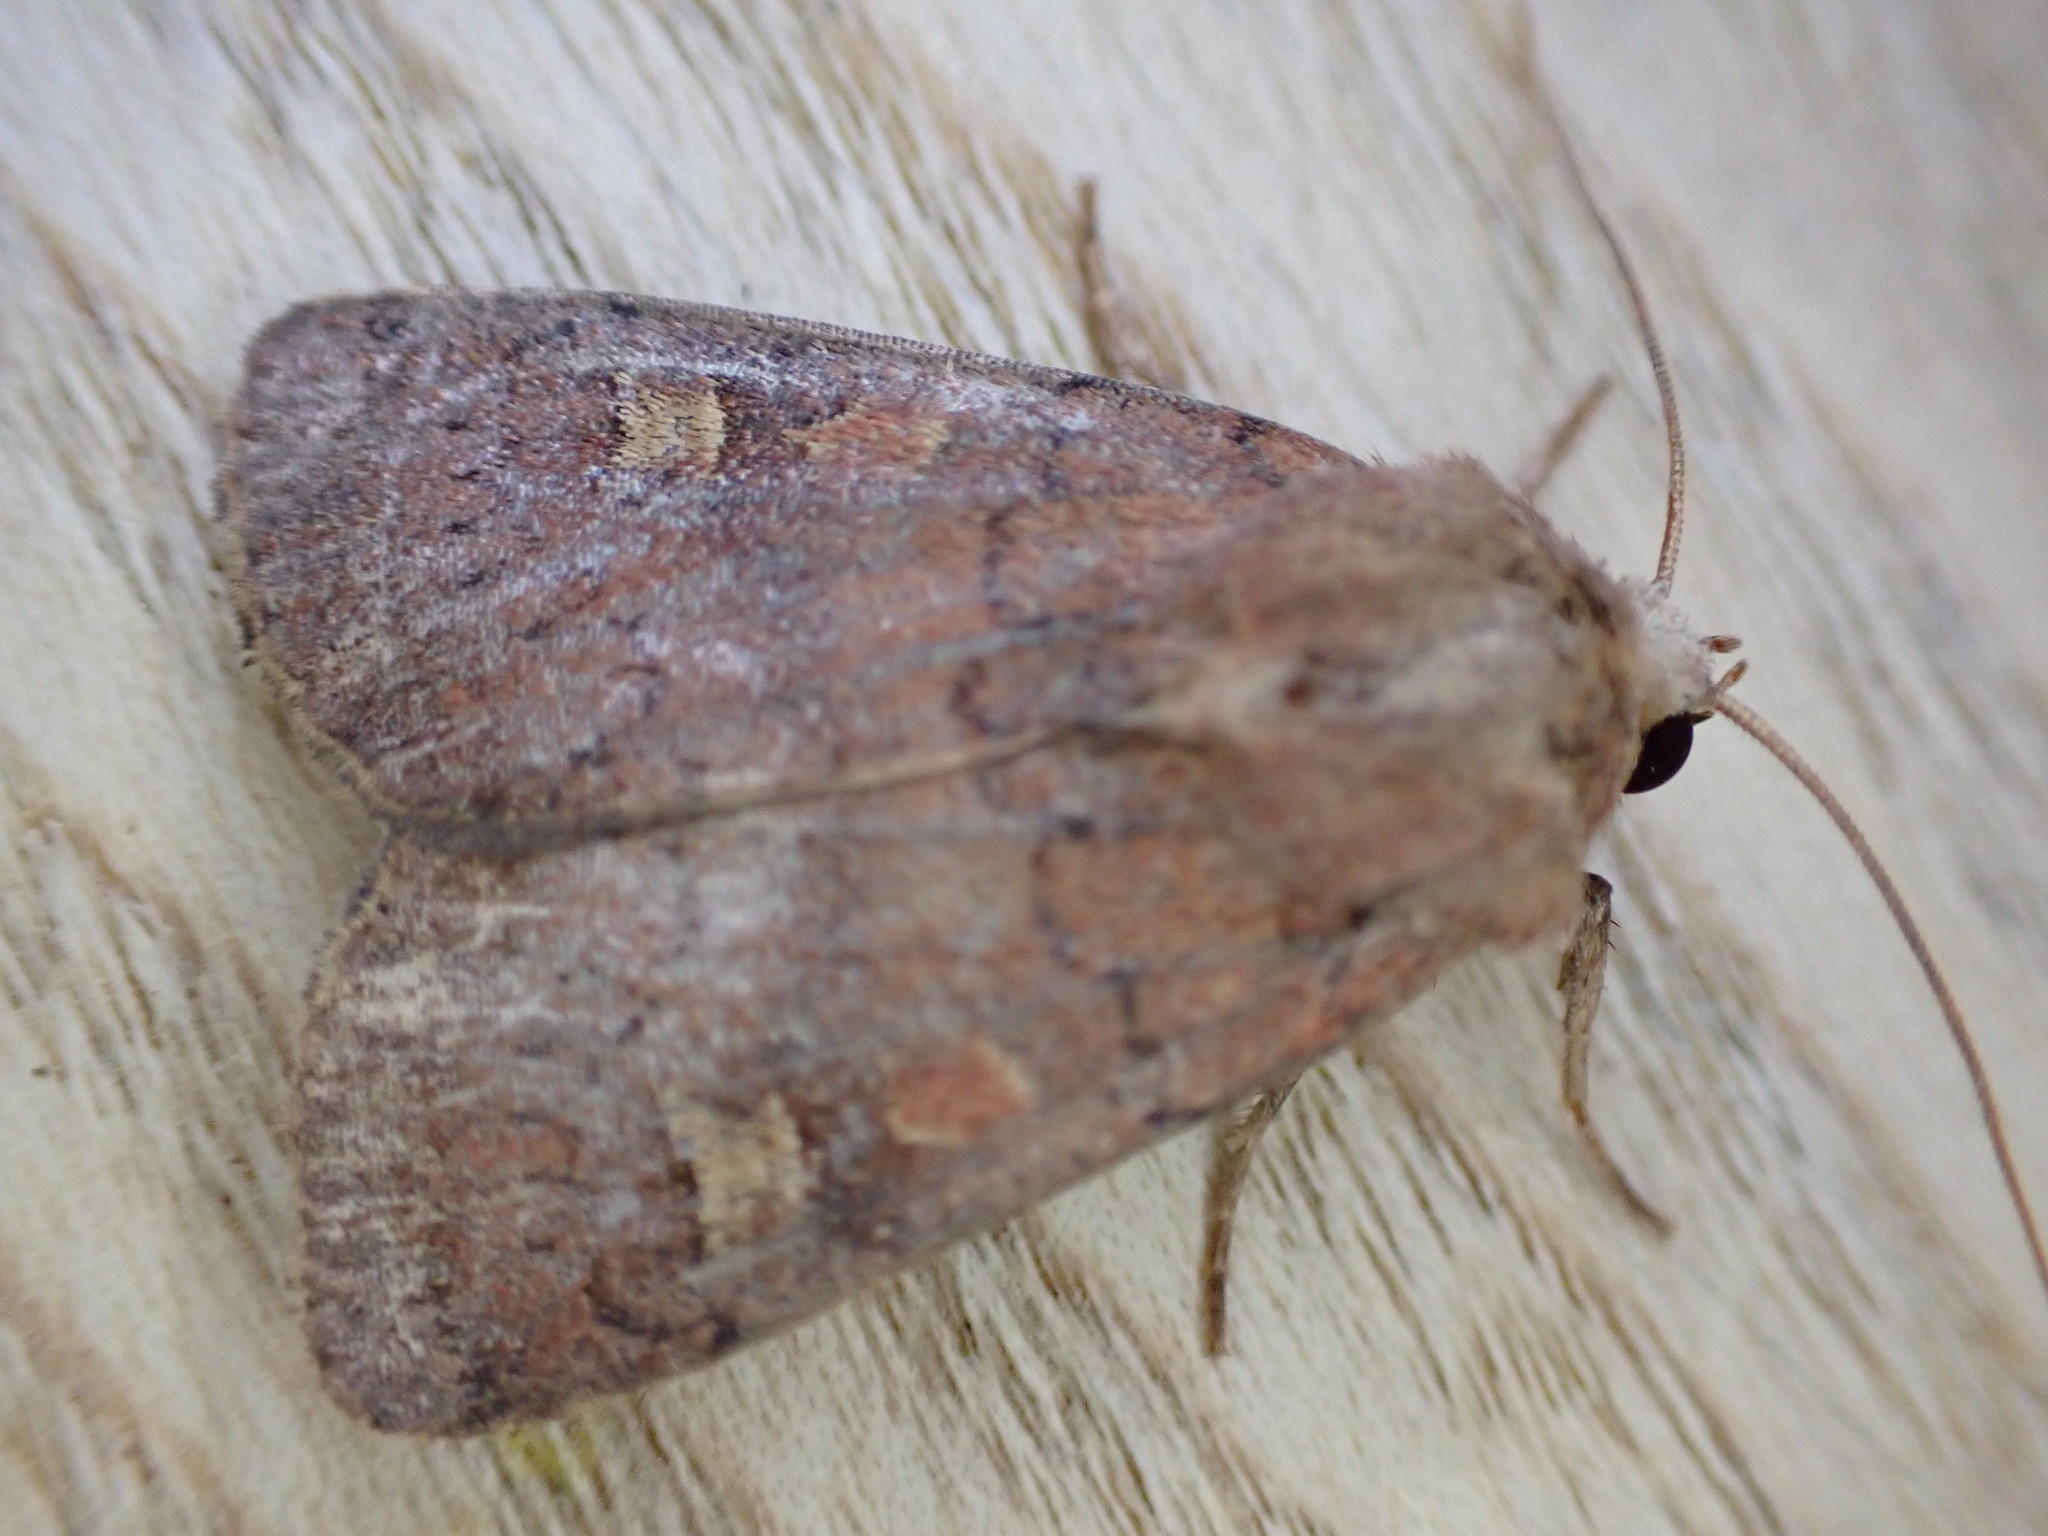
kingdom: Animalia
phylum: Arthropoda
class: Insecta
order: Lepidoptera
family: Noctuidae
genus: Xestia
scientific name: Xestia xanthographa
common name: Square-spot rustic
